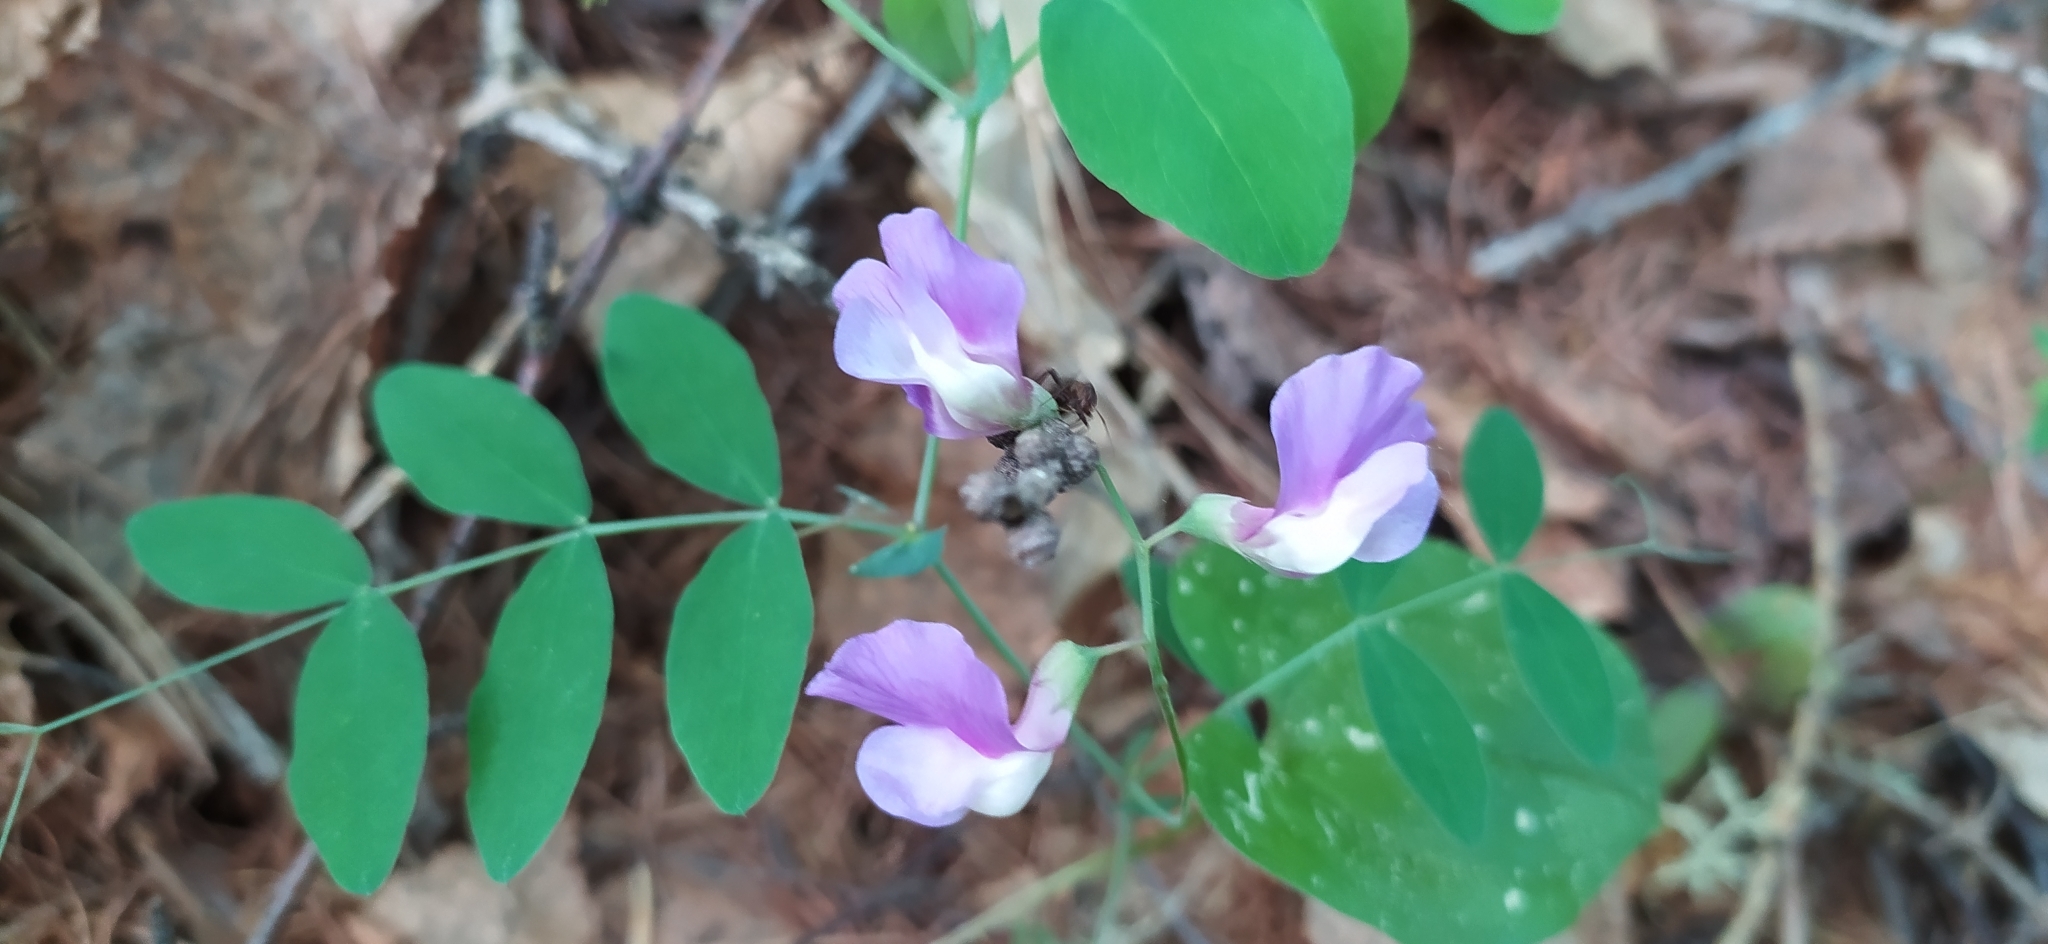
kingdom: Plantae
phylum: Tracheophyta
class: Magnoliopsida
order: Fabales
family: Fabaceae
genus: Lathyrus
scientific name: Lathyrus humilis
